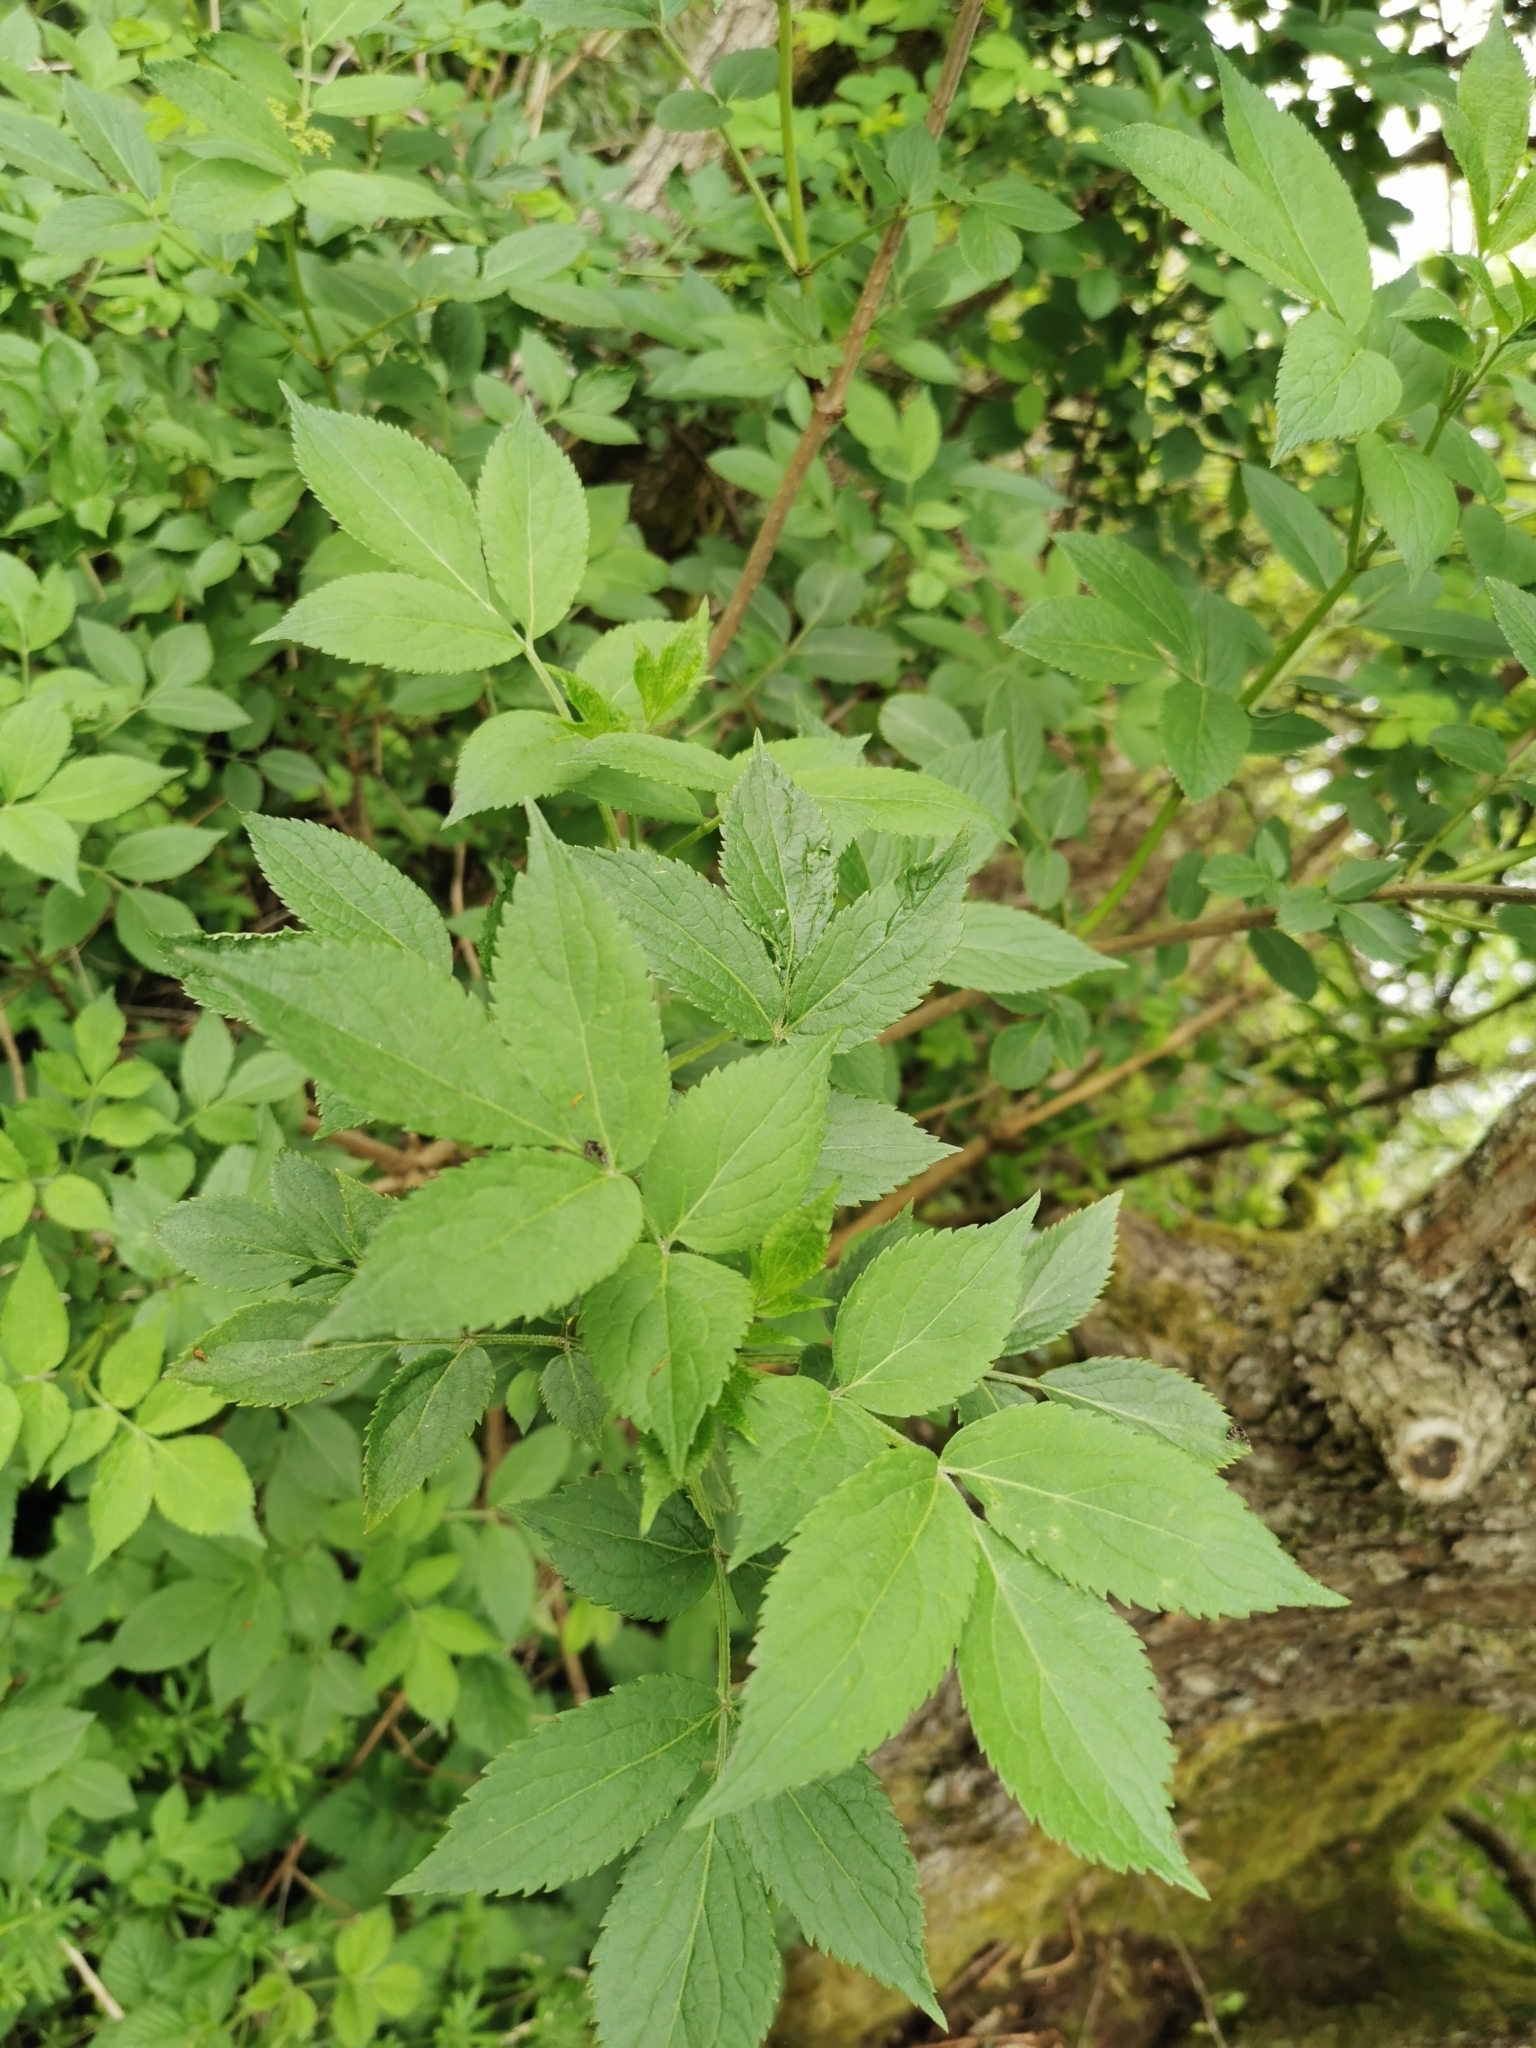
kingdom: Plantae
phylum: Tracheophyta
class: Magnoliopsida
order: Dipsacales
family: Viburnaceae
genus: Sambucus
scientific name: Sambucus nigra
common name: Elder
